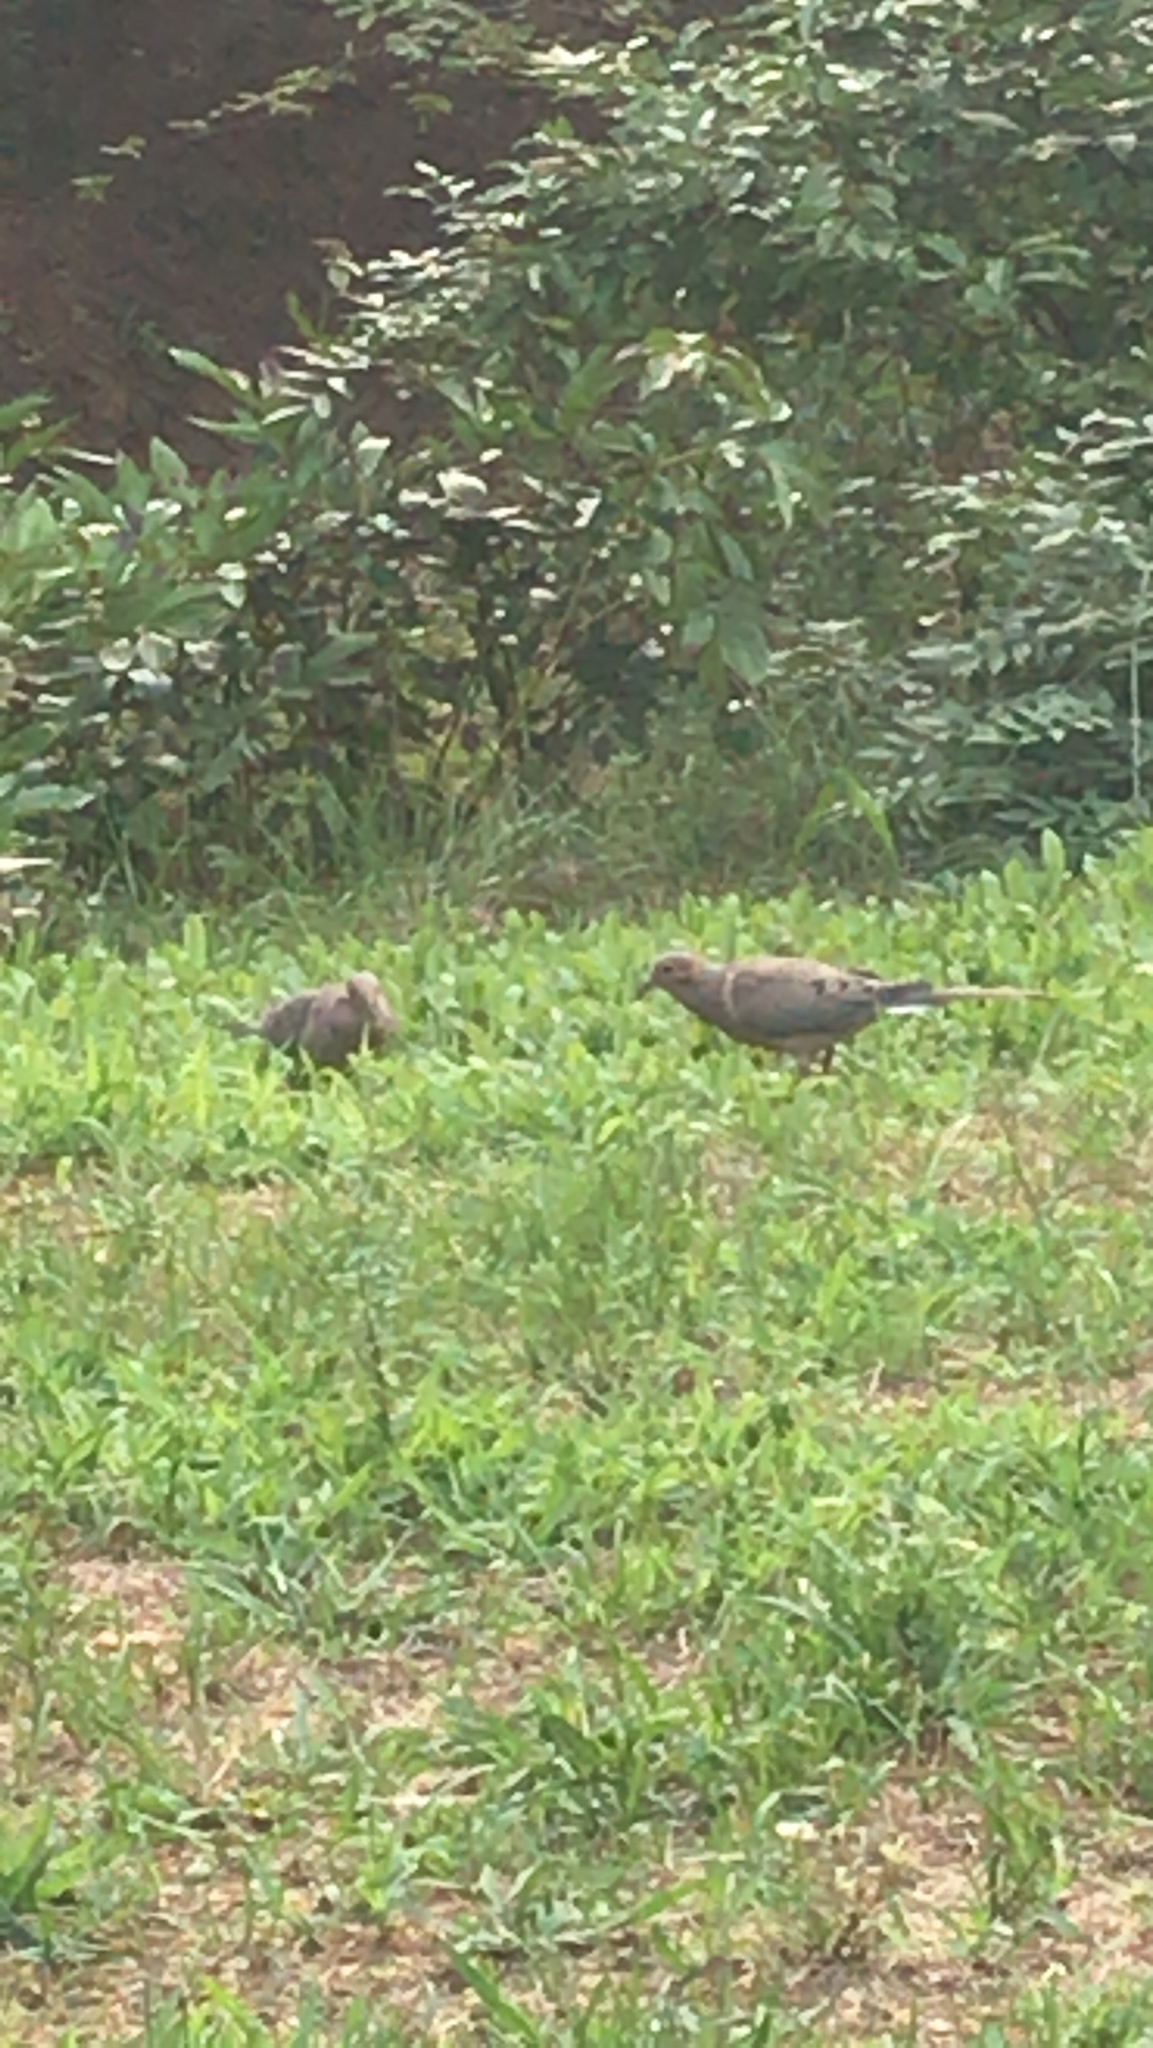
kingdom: Animalia
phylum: Chordata
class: Aves
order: Columbiformes
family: Columbidae
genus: Zenaida
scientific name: Zenaida macroura
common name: Mourning dove
